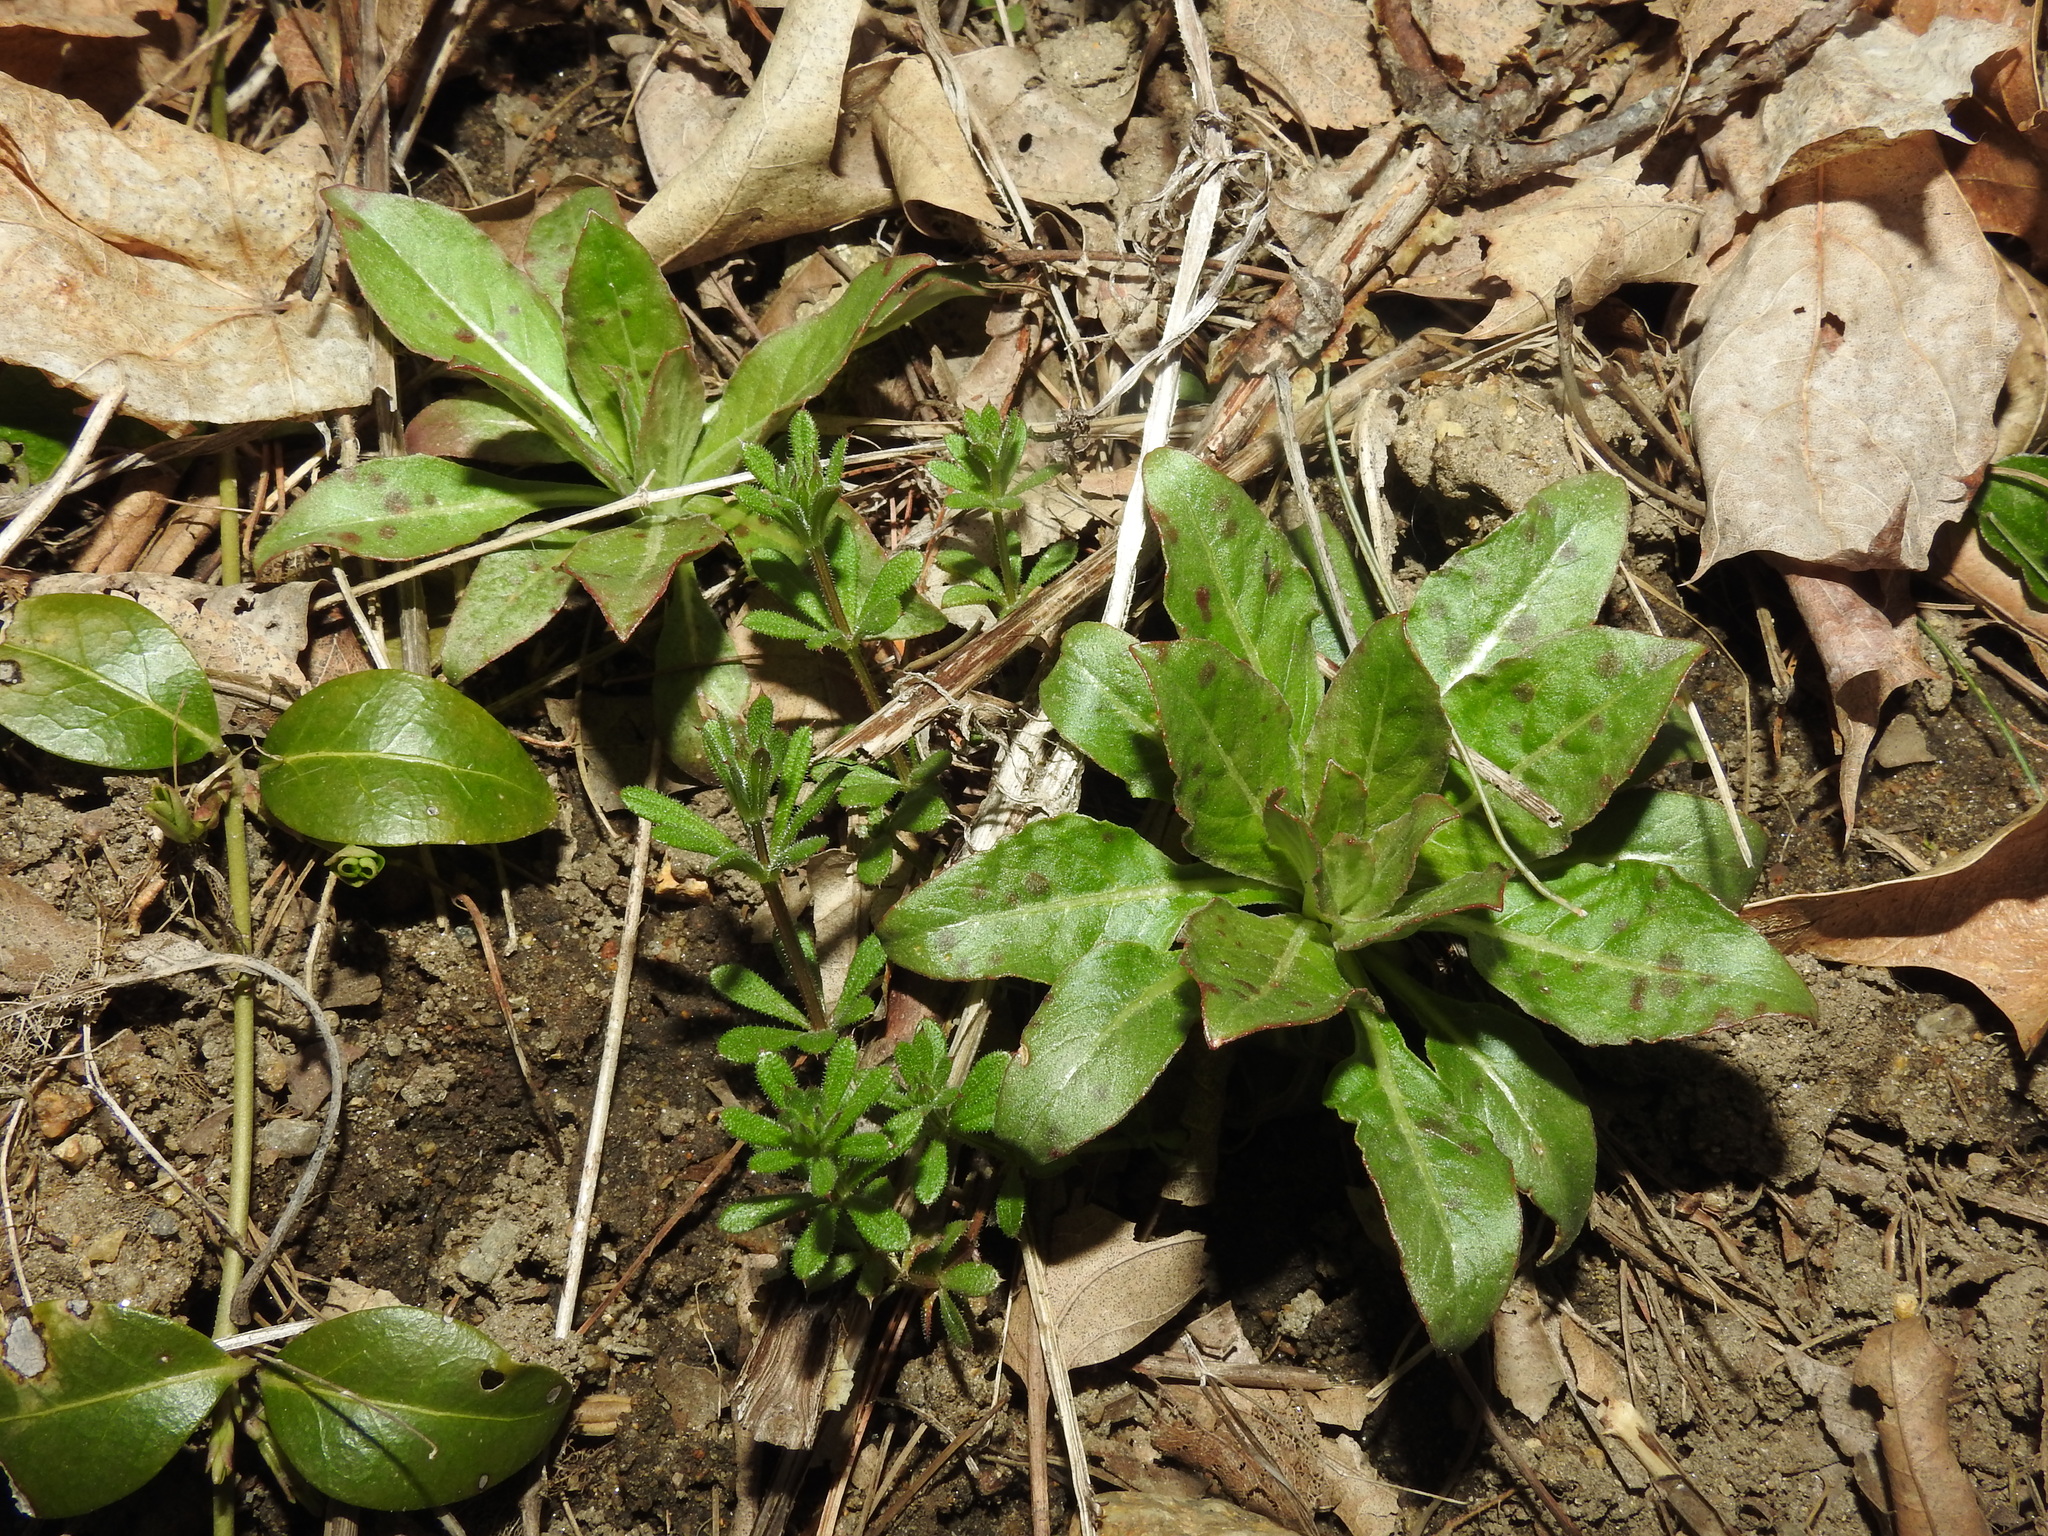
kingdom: Plantae
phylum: Tracheophyta
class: Magnoliopsida
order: Myrtales
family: Onagraceae
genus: Oenothera
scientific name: Oenothera biennis
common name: Common evening-primrose
